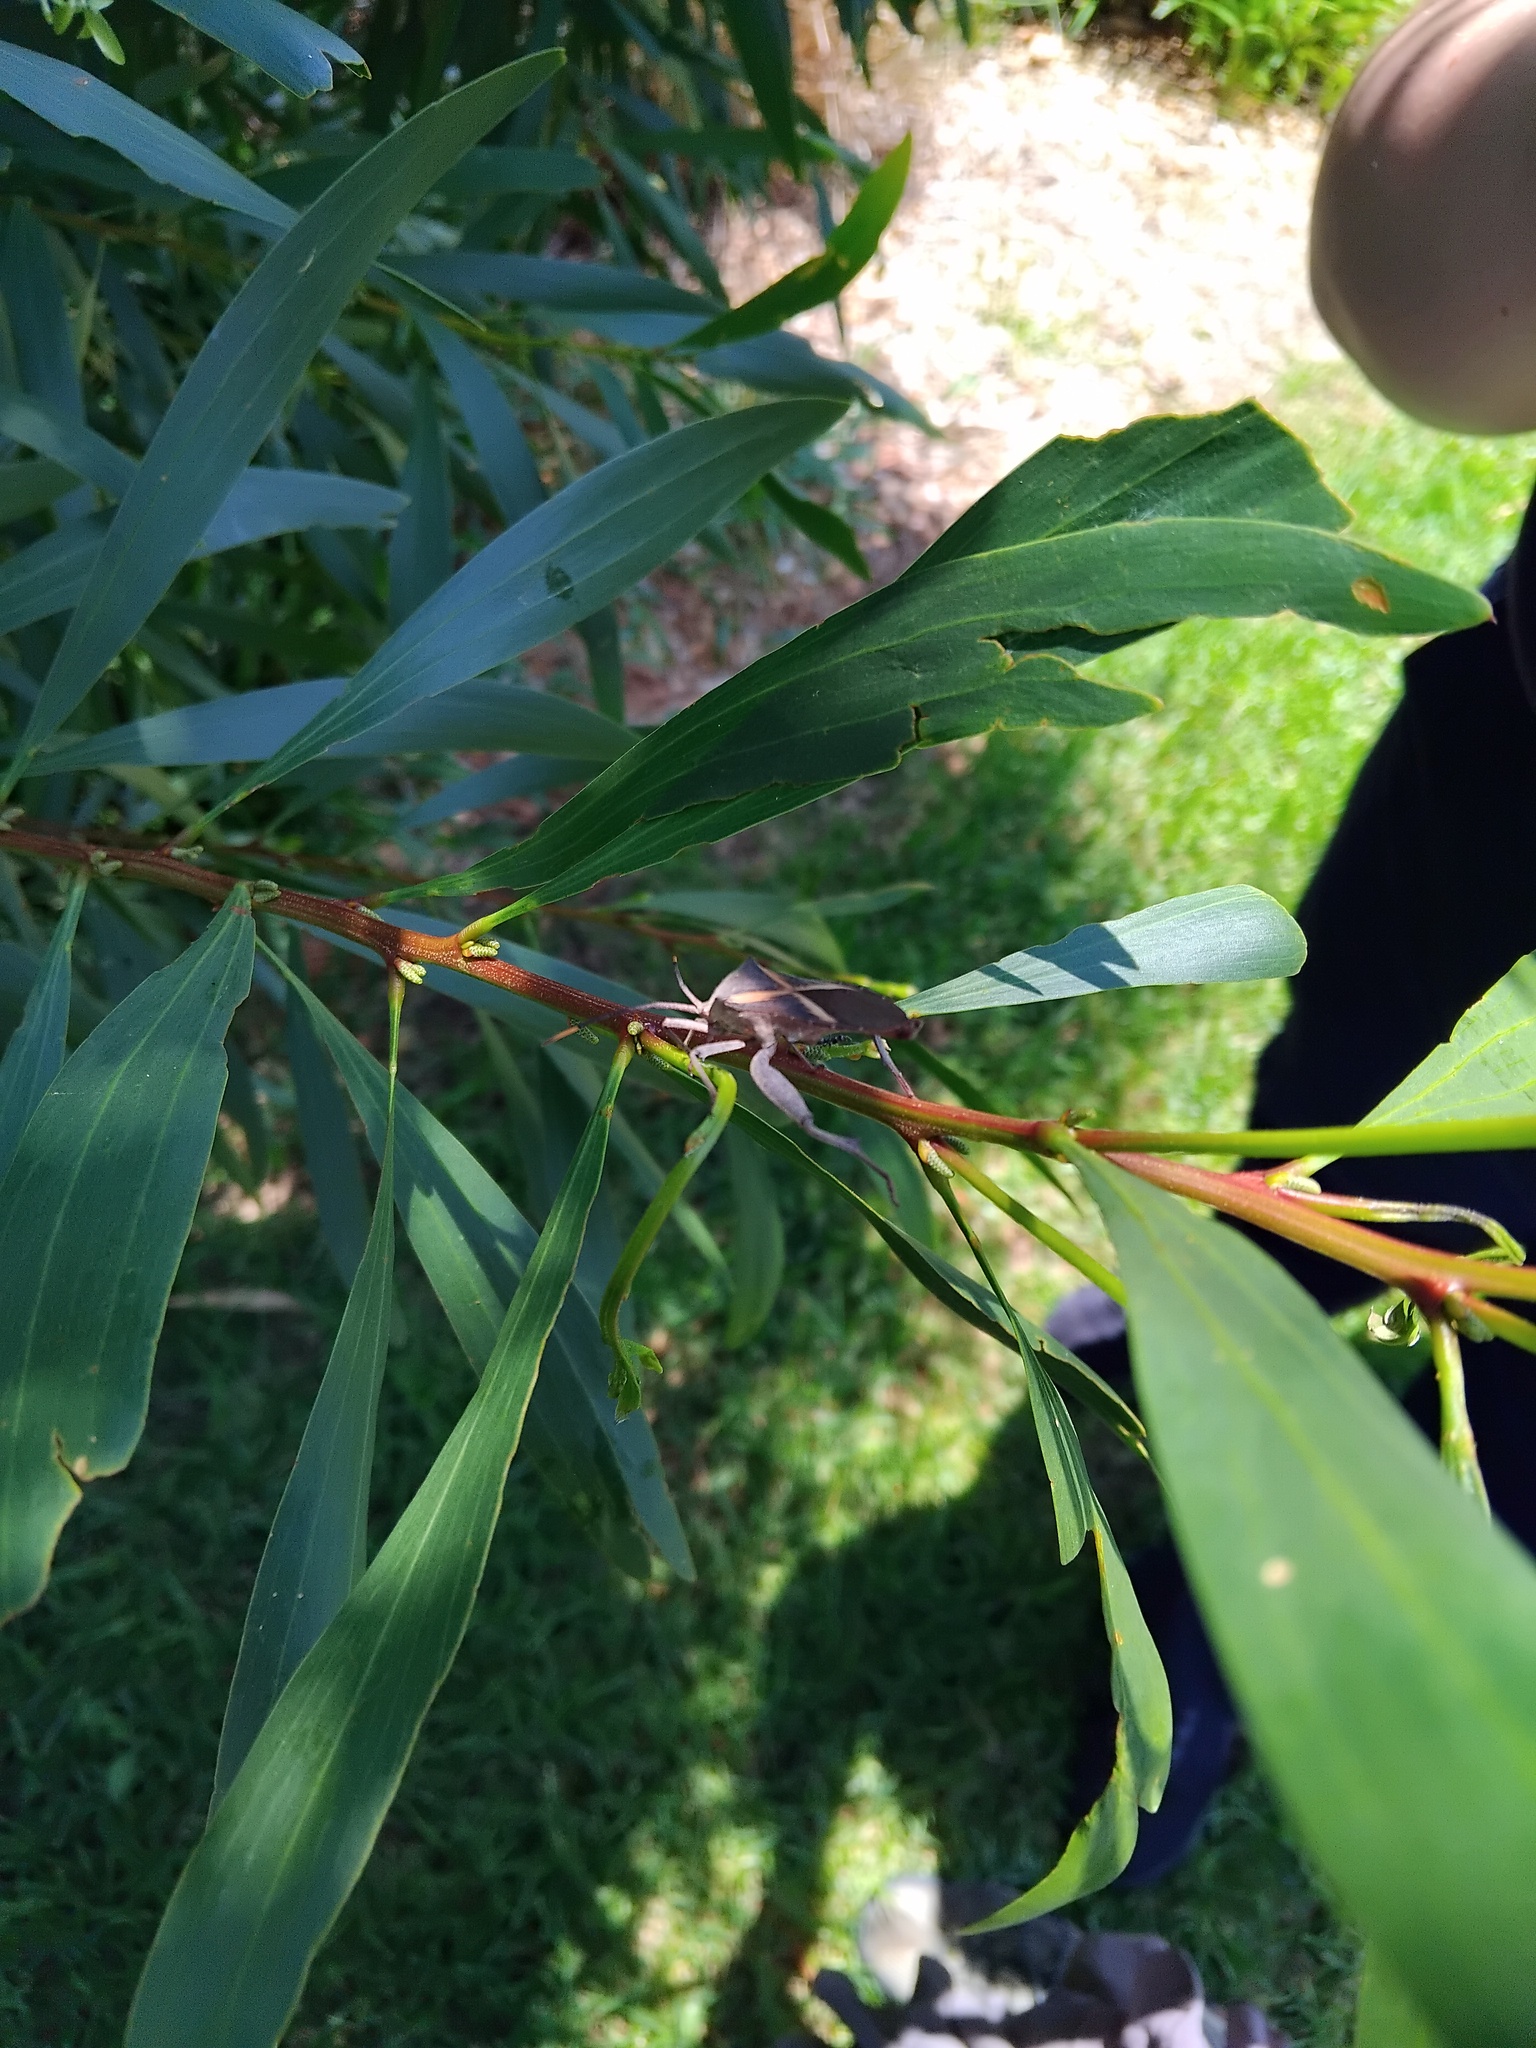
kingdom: Animalia
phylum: Arthropoda
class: Insecta
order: Hemiptera
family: Coreidae
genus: Mictis
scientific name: Mictis profana
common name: Crusader bug
